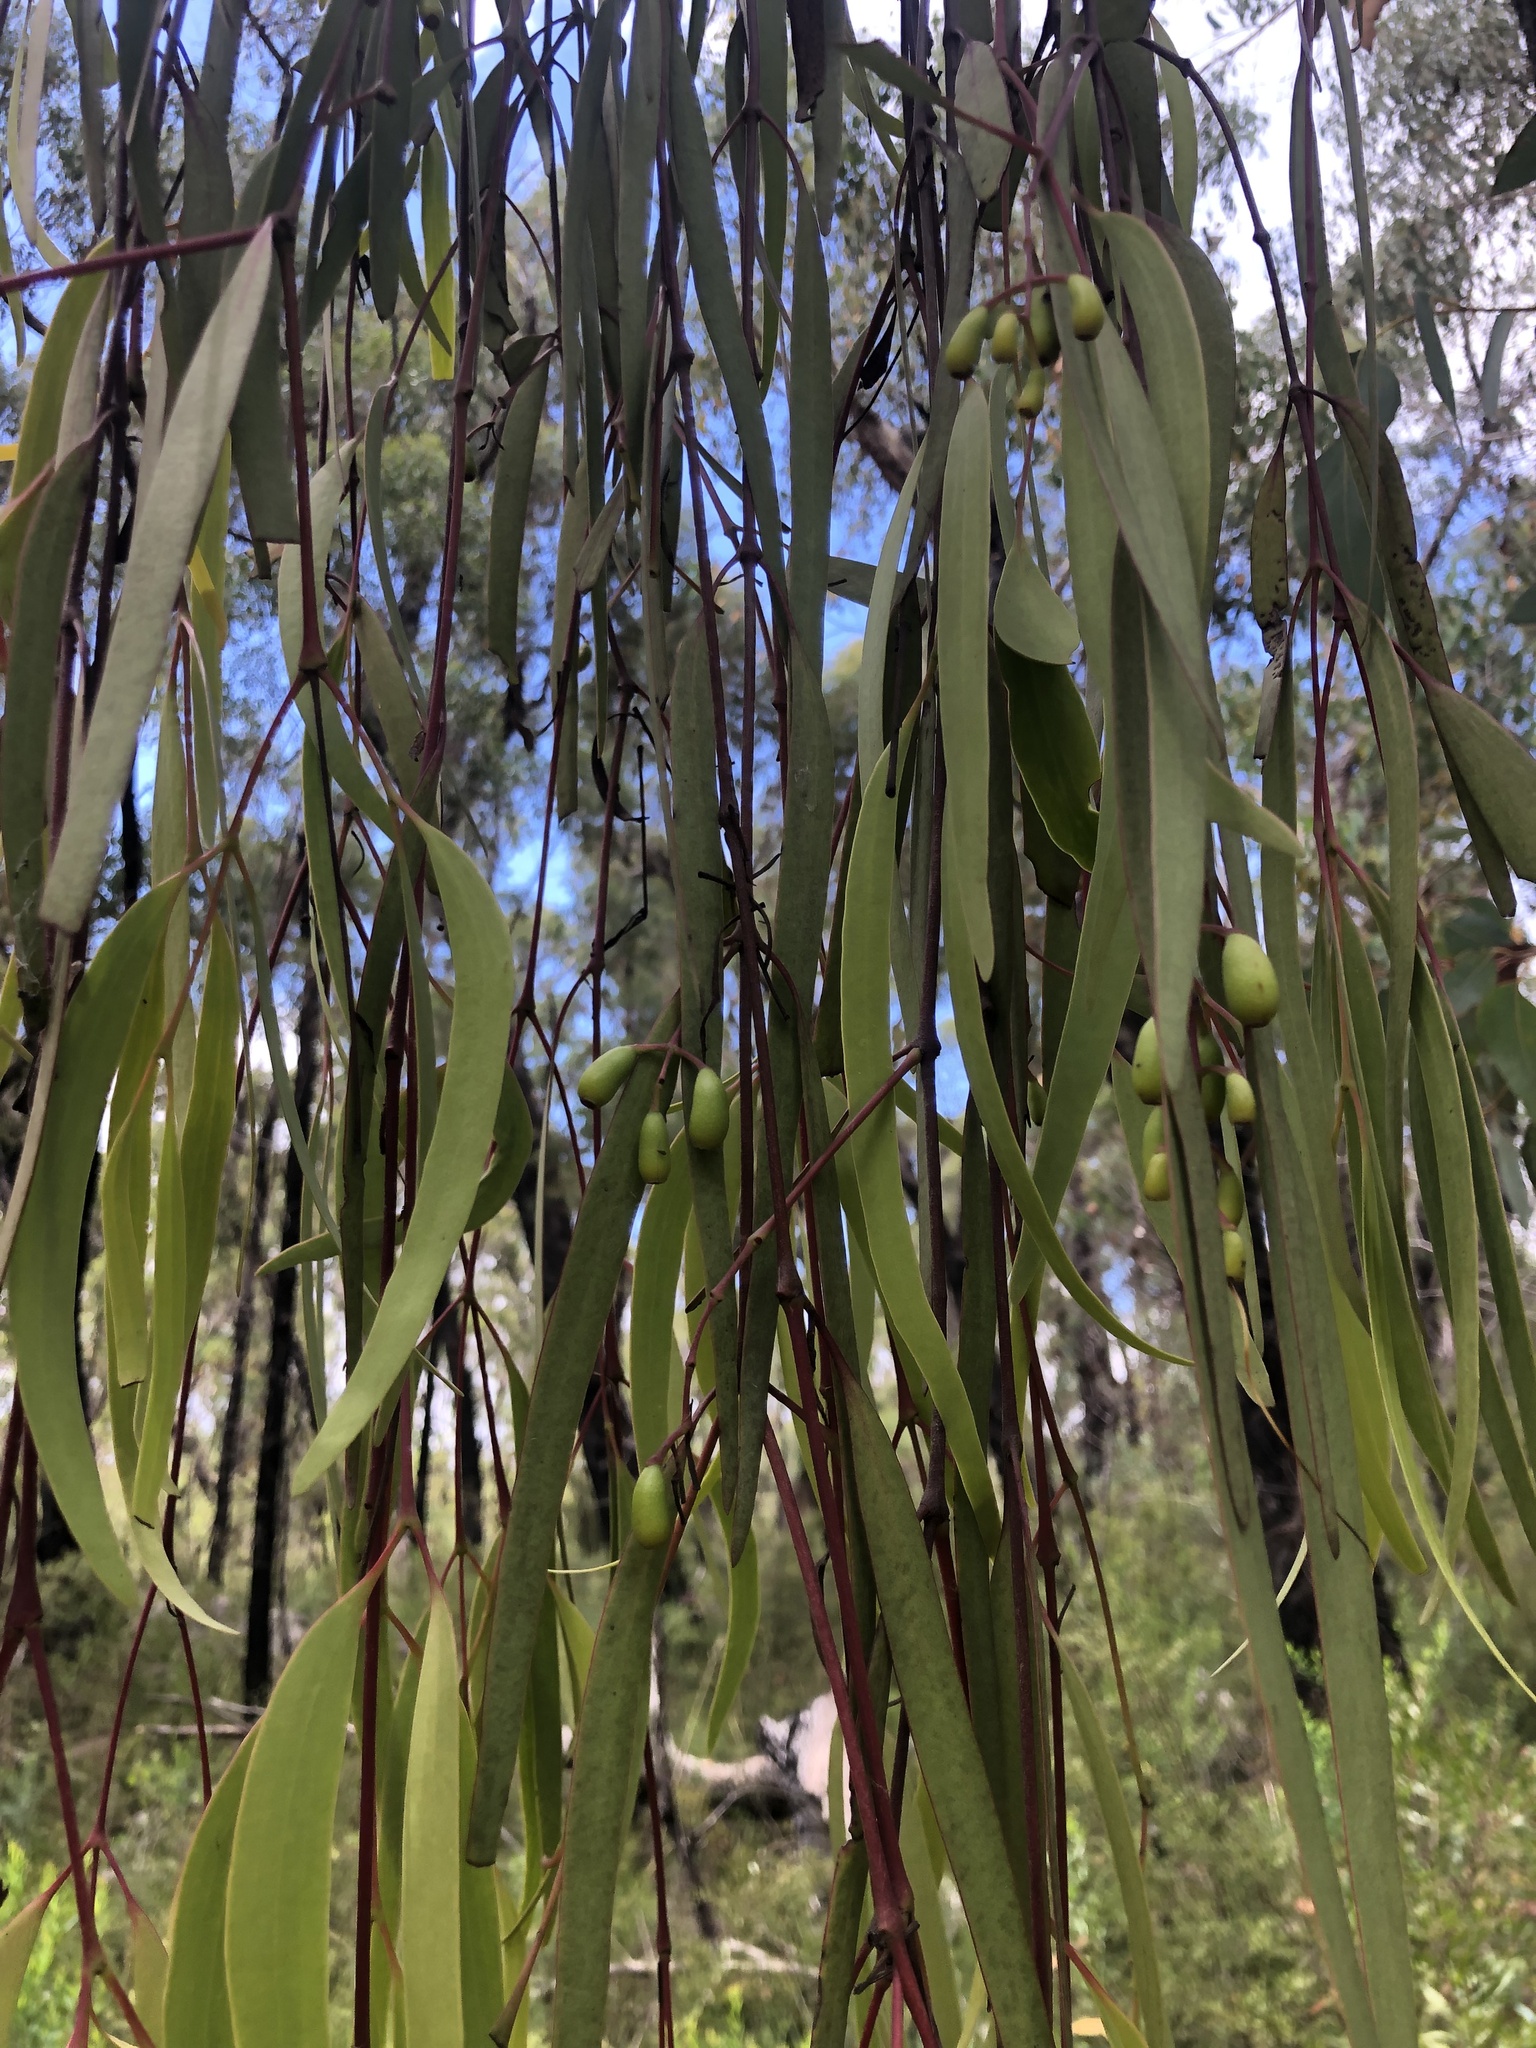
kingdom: Plantae
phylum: Tracheophyta
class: Magnoliopsida
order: Santalales
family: Loranthaceae
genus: Muellerina
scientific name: Muellerina eucalyptoides
